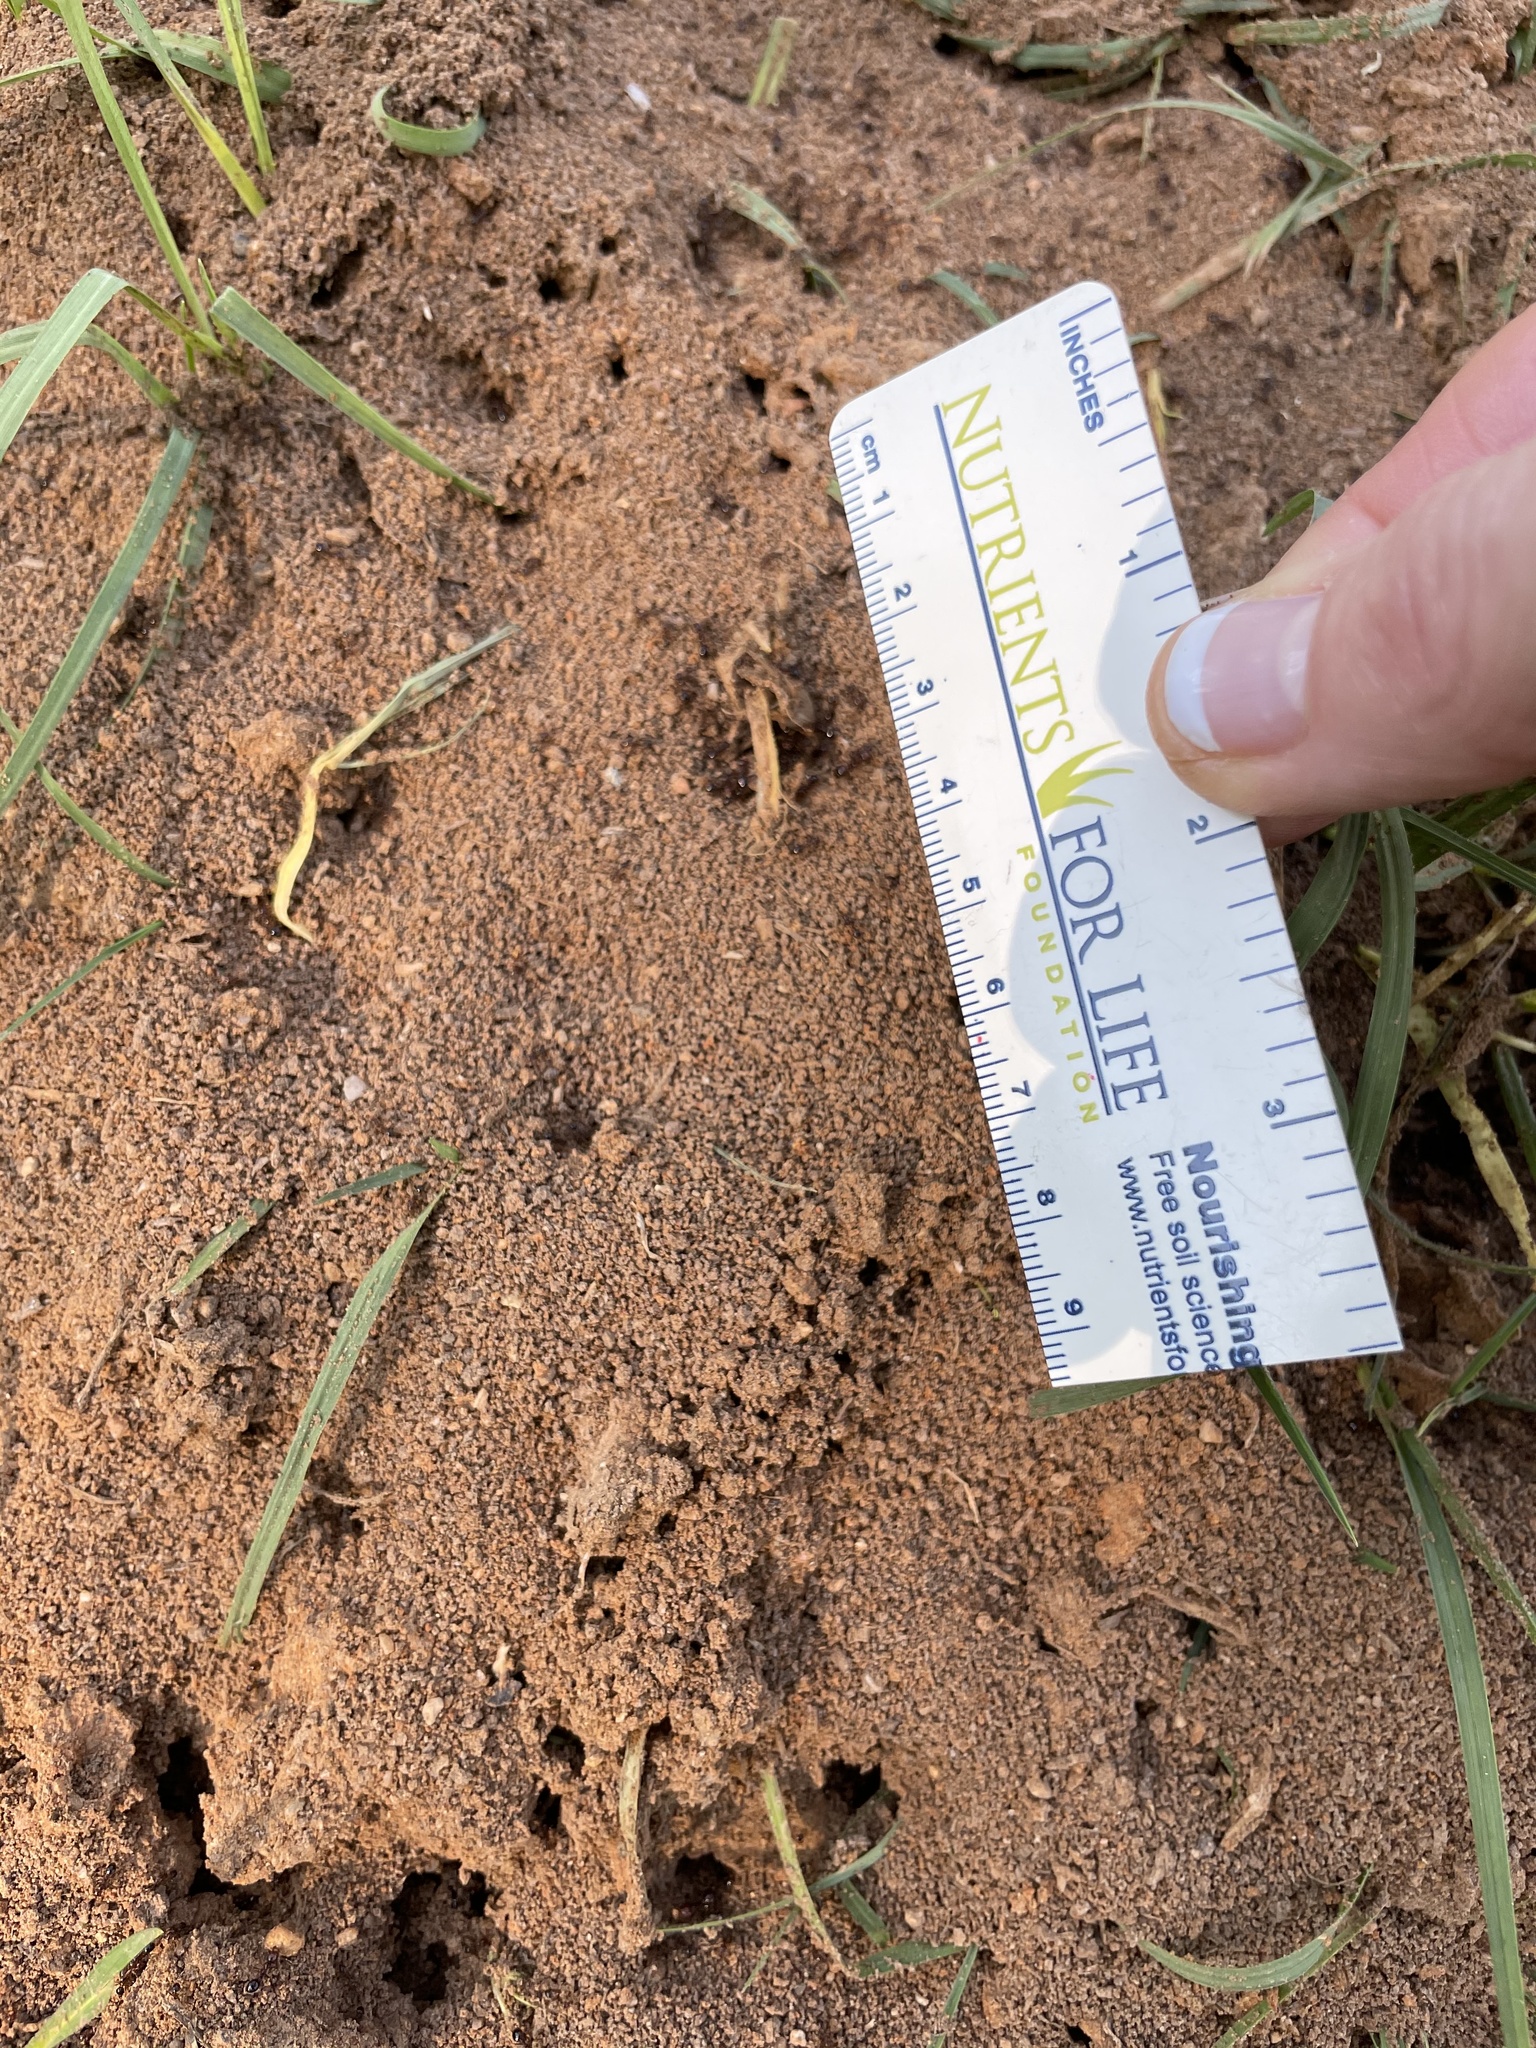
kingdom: Animalia
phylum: Arthropoda
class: Insecta
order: Hymenoptera
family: Formicidae
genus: Solenopsis
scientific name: Solenopsis invicta
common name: Red imported fire ant
